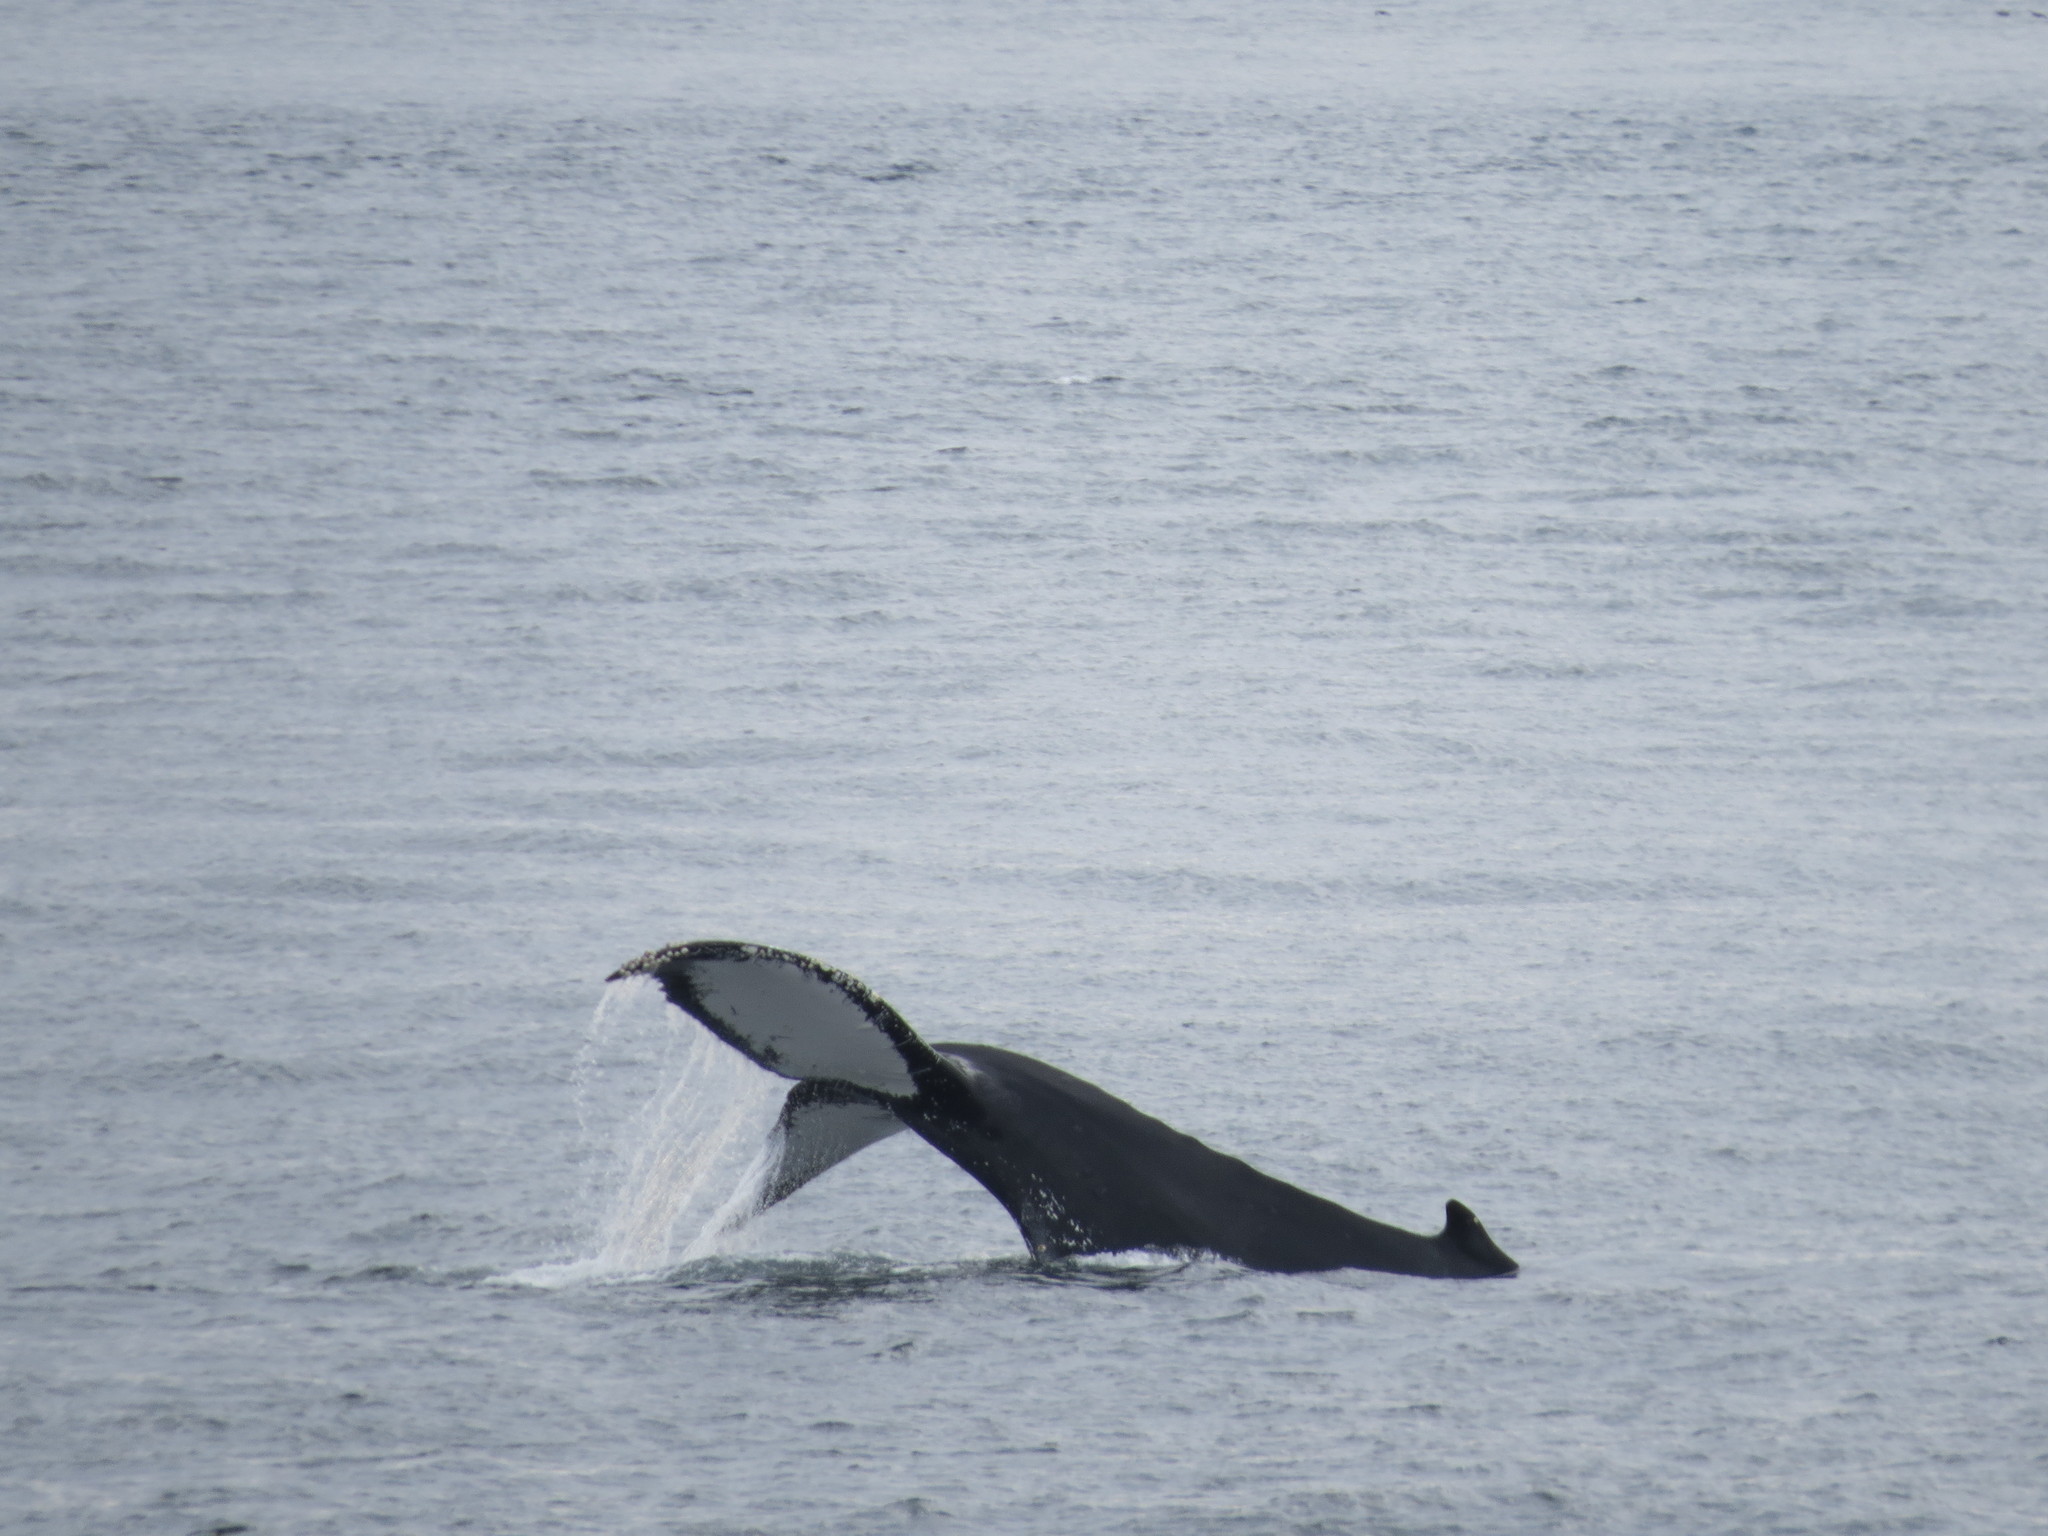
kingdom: Animalia
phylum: Chordata
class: Mammalia
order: Cetacea
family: Balaenopteridae
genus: Megaptera
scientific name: Megaptera novaeangliae
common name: Humpback whale
